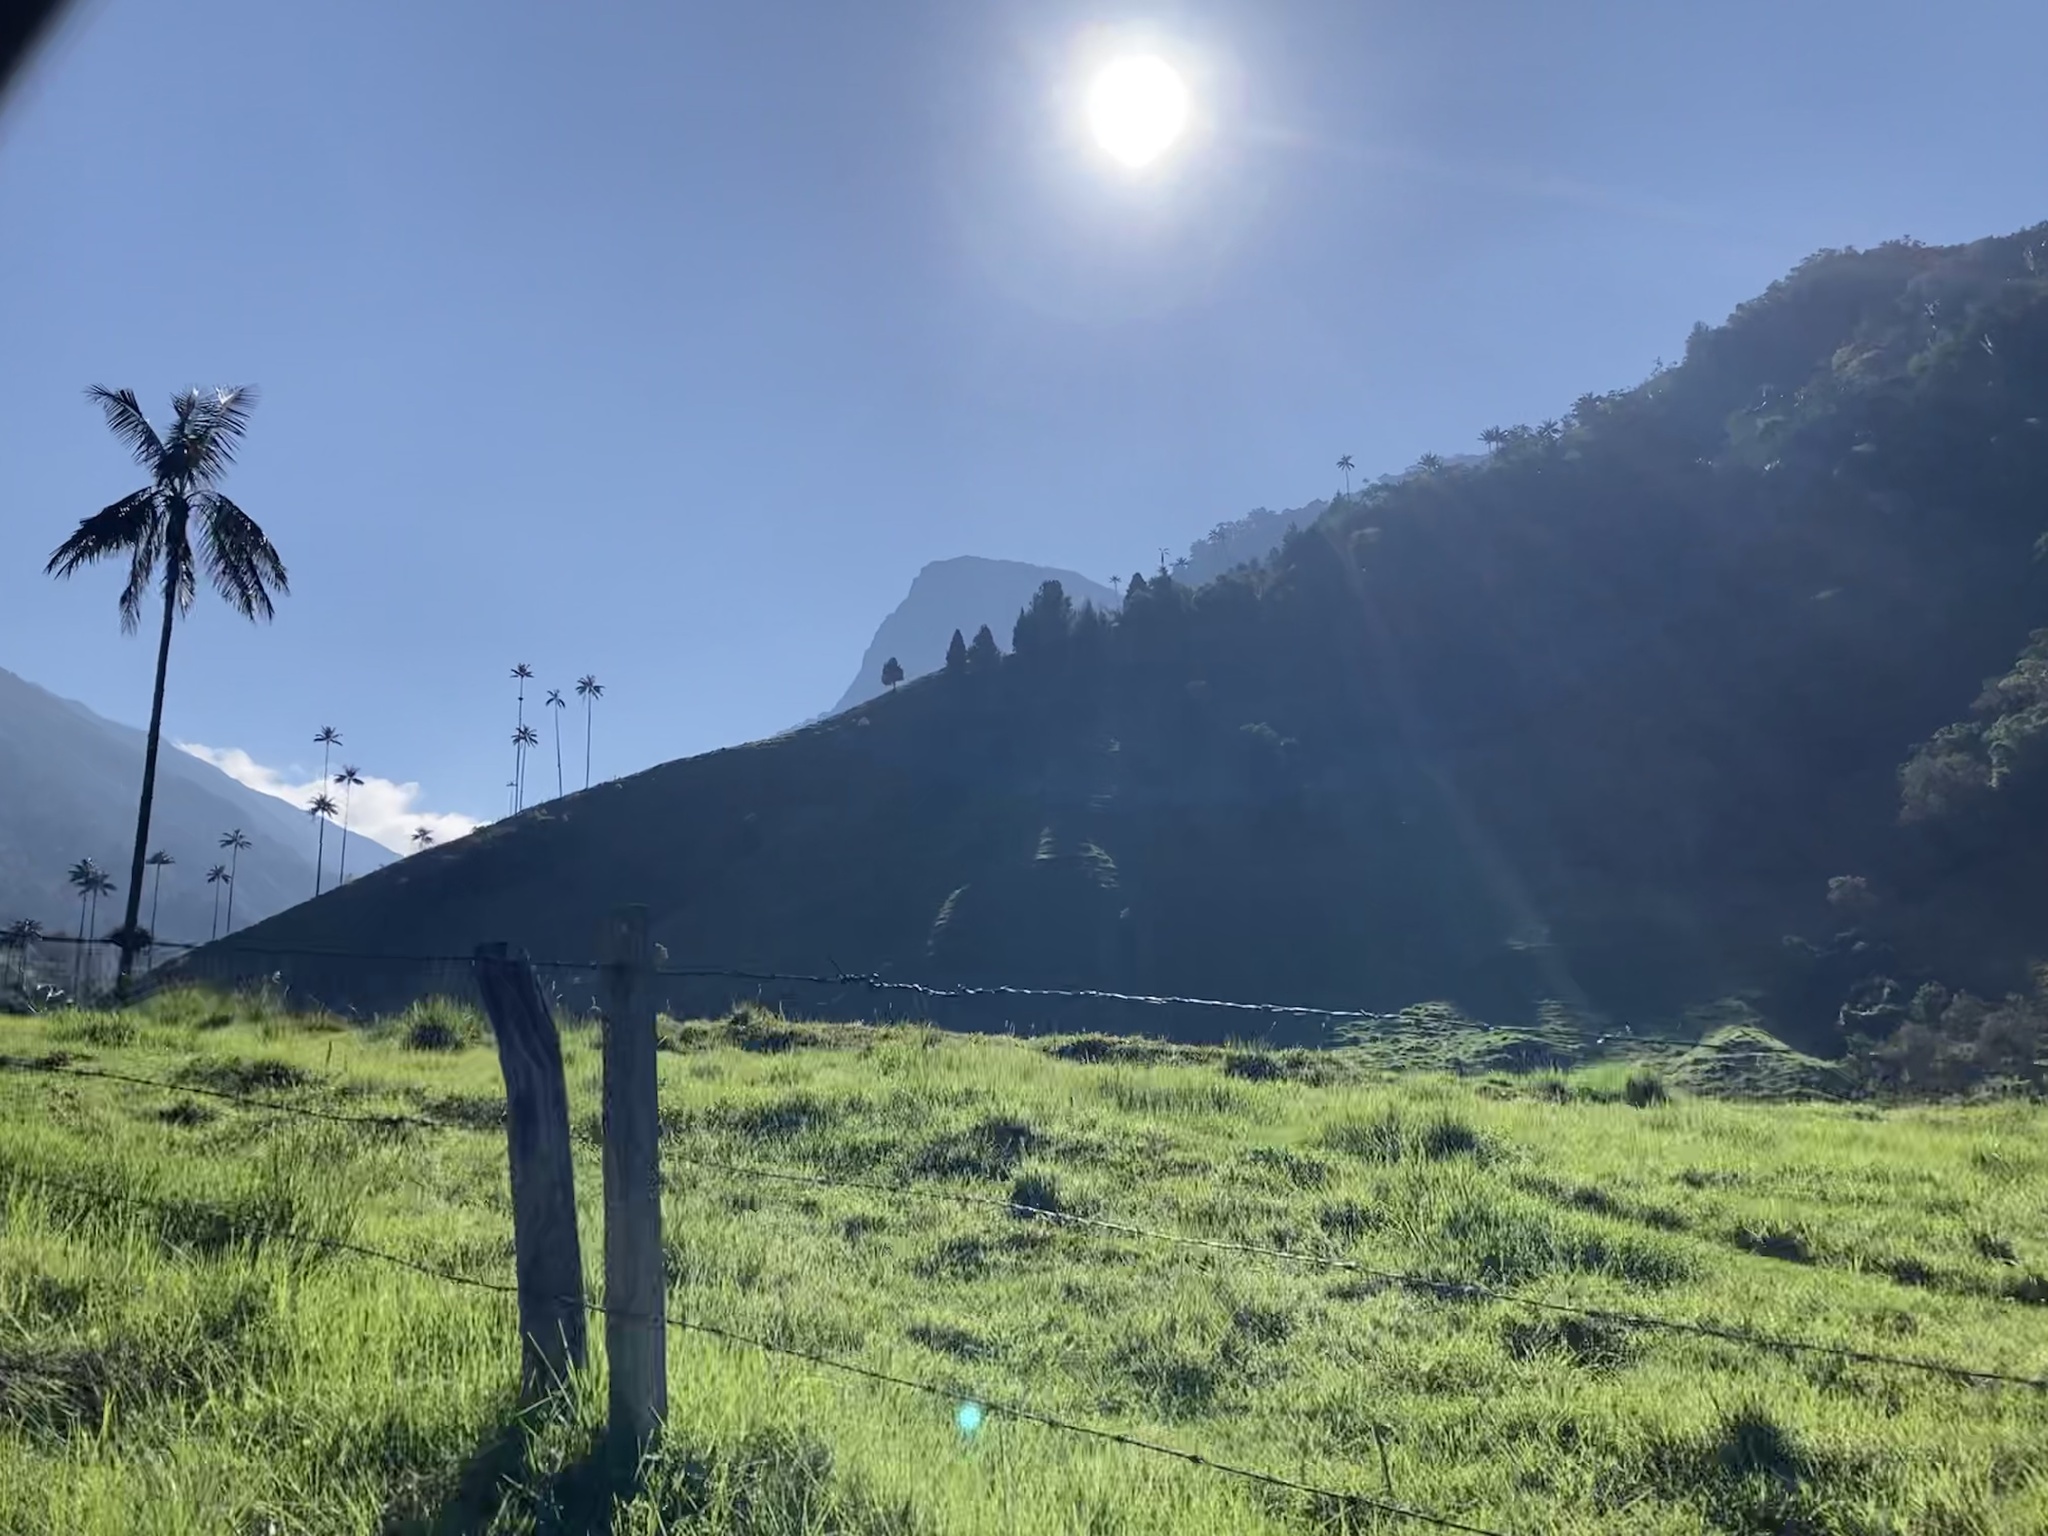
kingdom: Plantae
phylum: Tracheophyta
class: Liliopsida
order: Arecales
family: Arecaceae
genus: Ceroxylon
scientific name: Ceroxylon quindiuense
